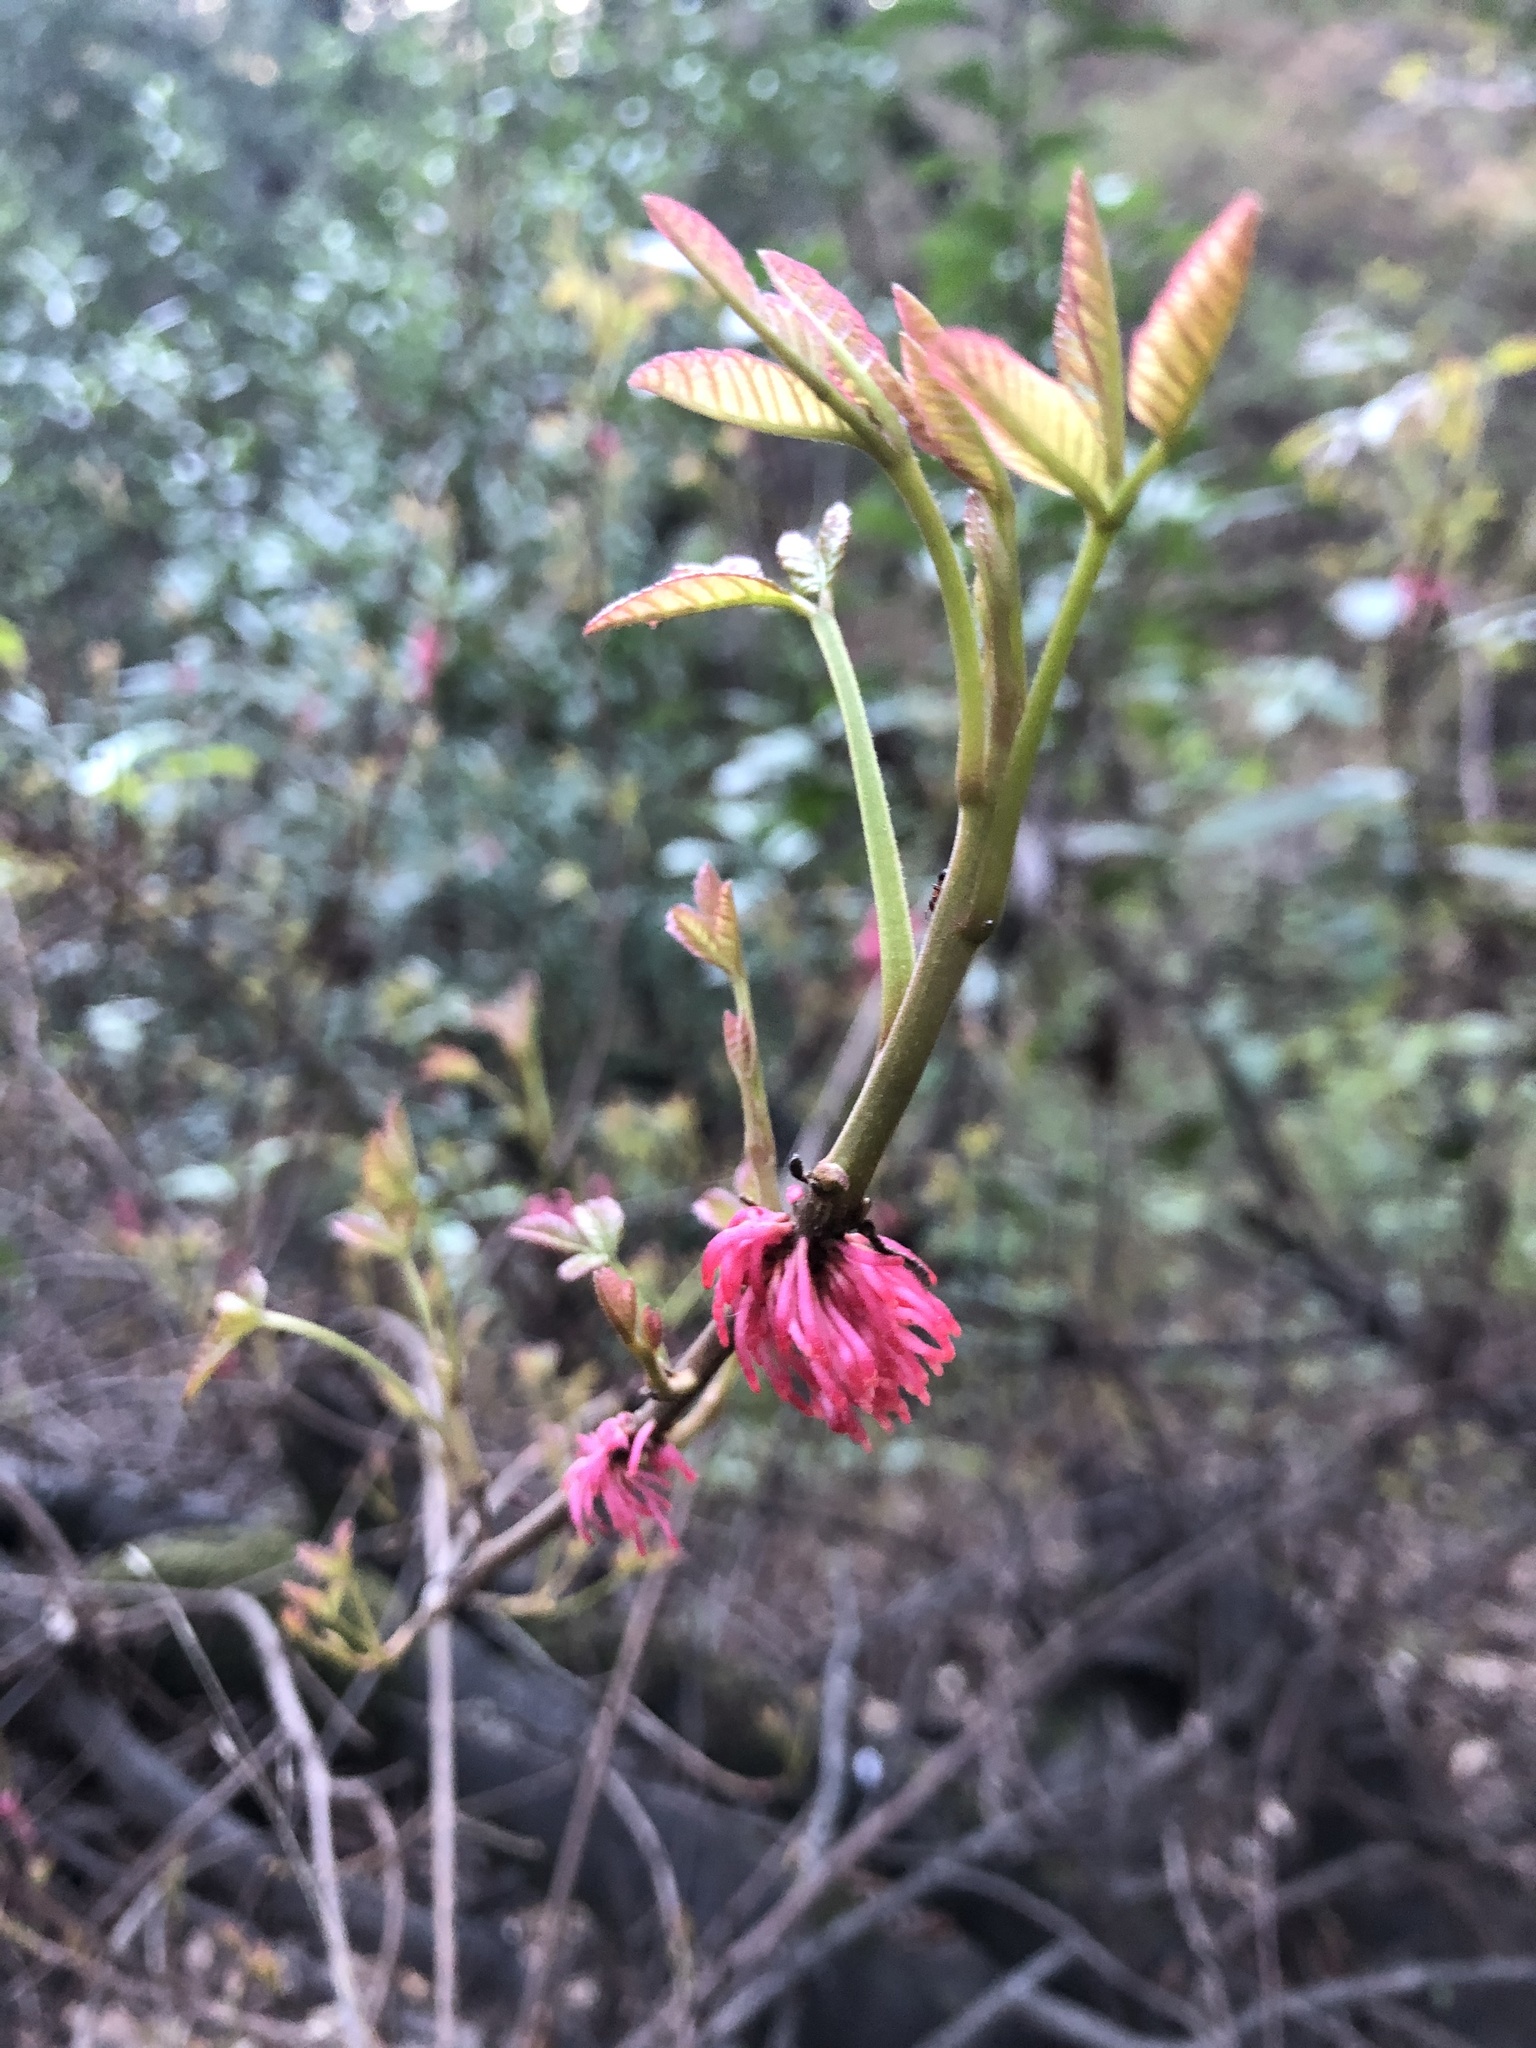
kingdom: Plantae
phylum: Tracheophyta
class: Magnoliopsida
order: Sapindales
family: Anacardiaceae
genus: Toxicodendron
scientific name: Toxicodendron diversilobum
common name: Pacific poison-oak
